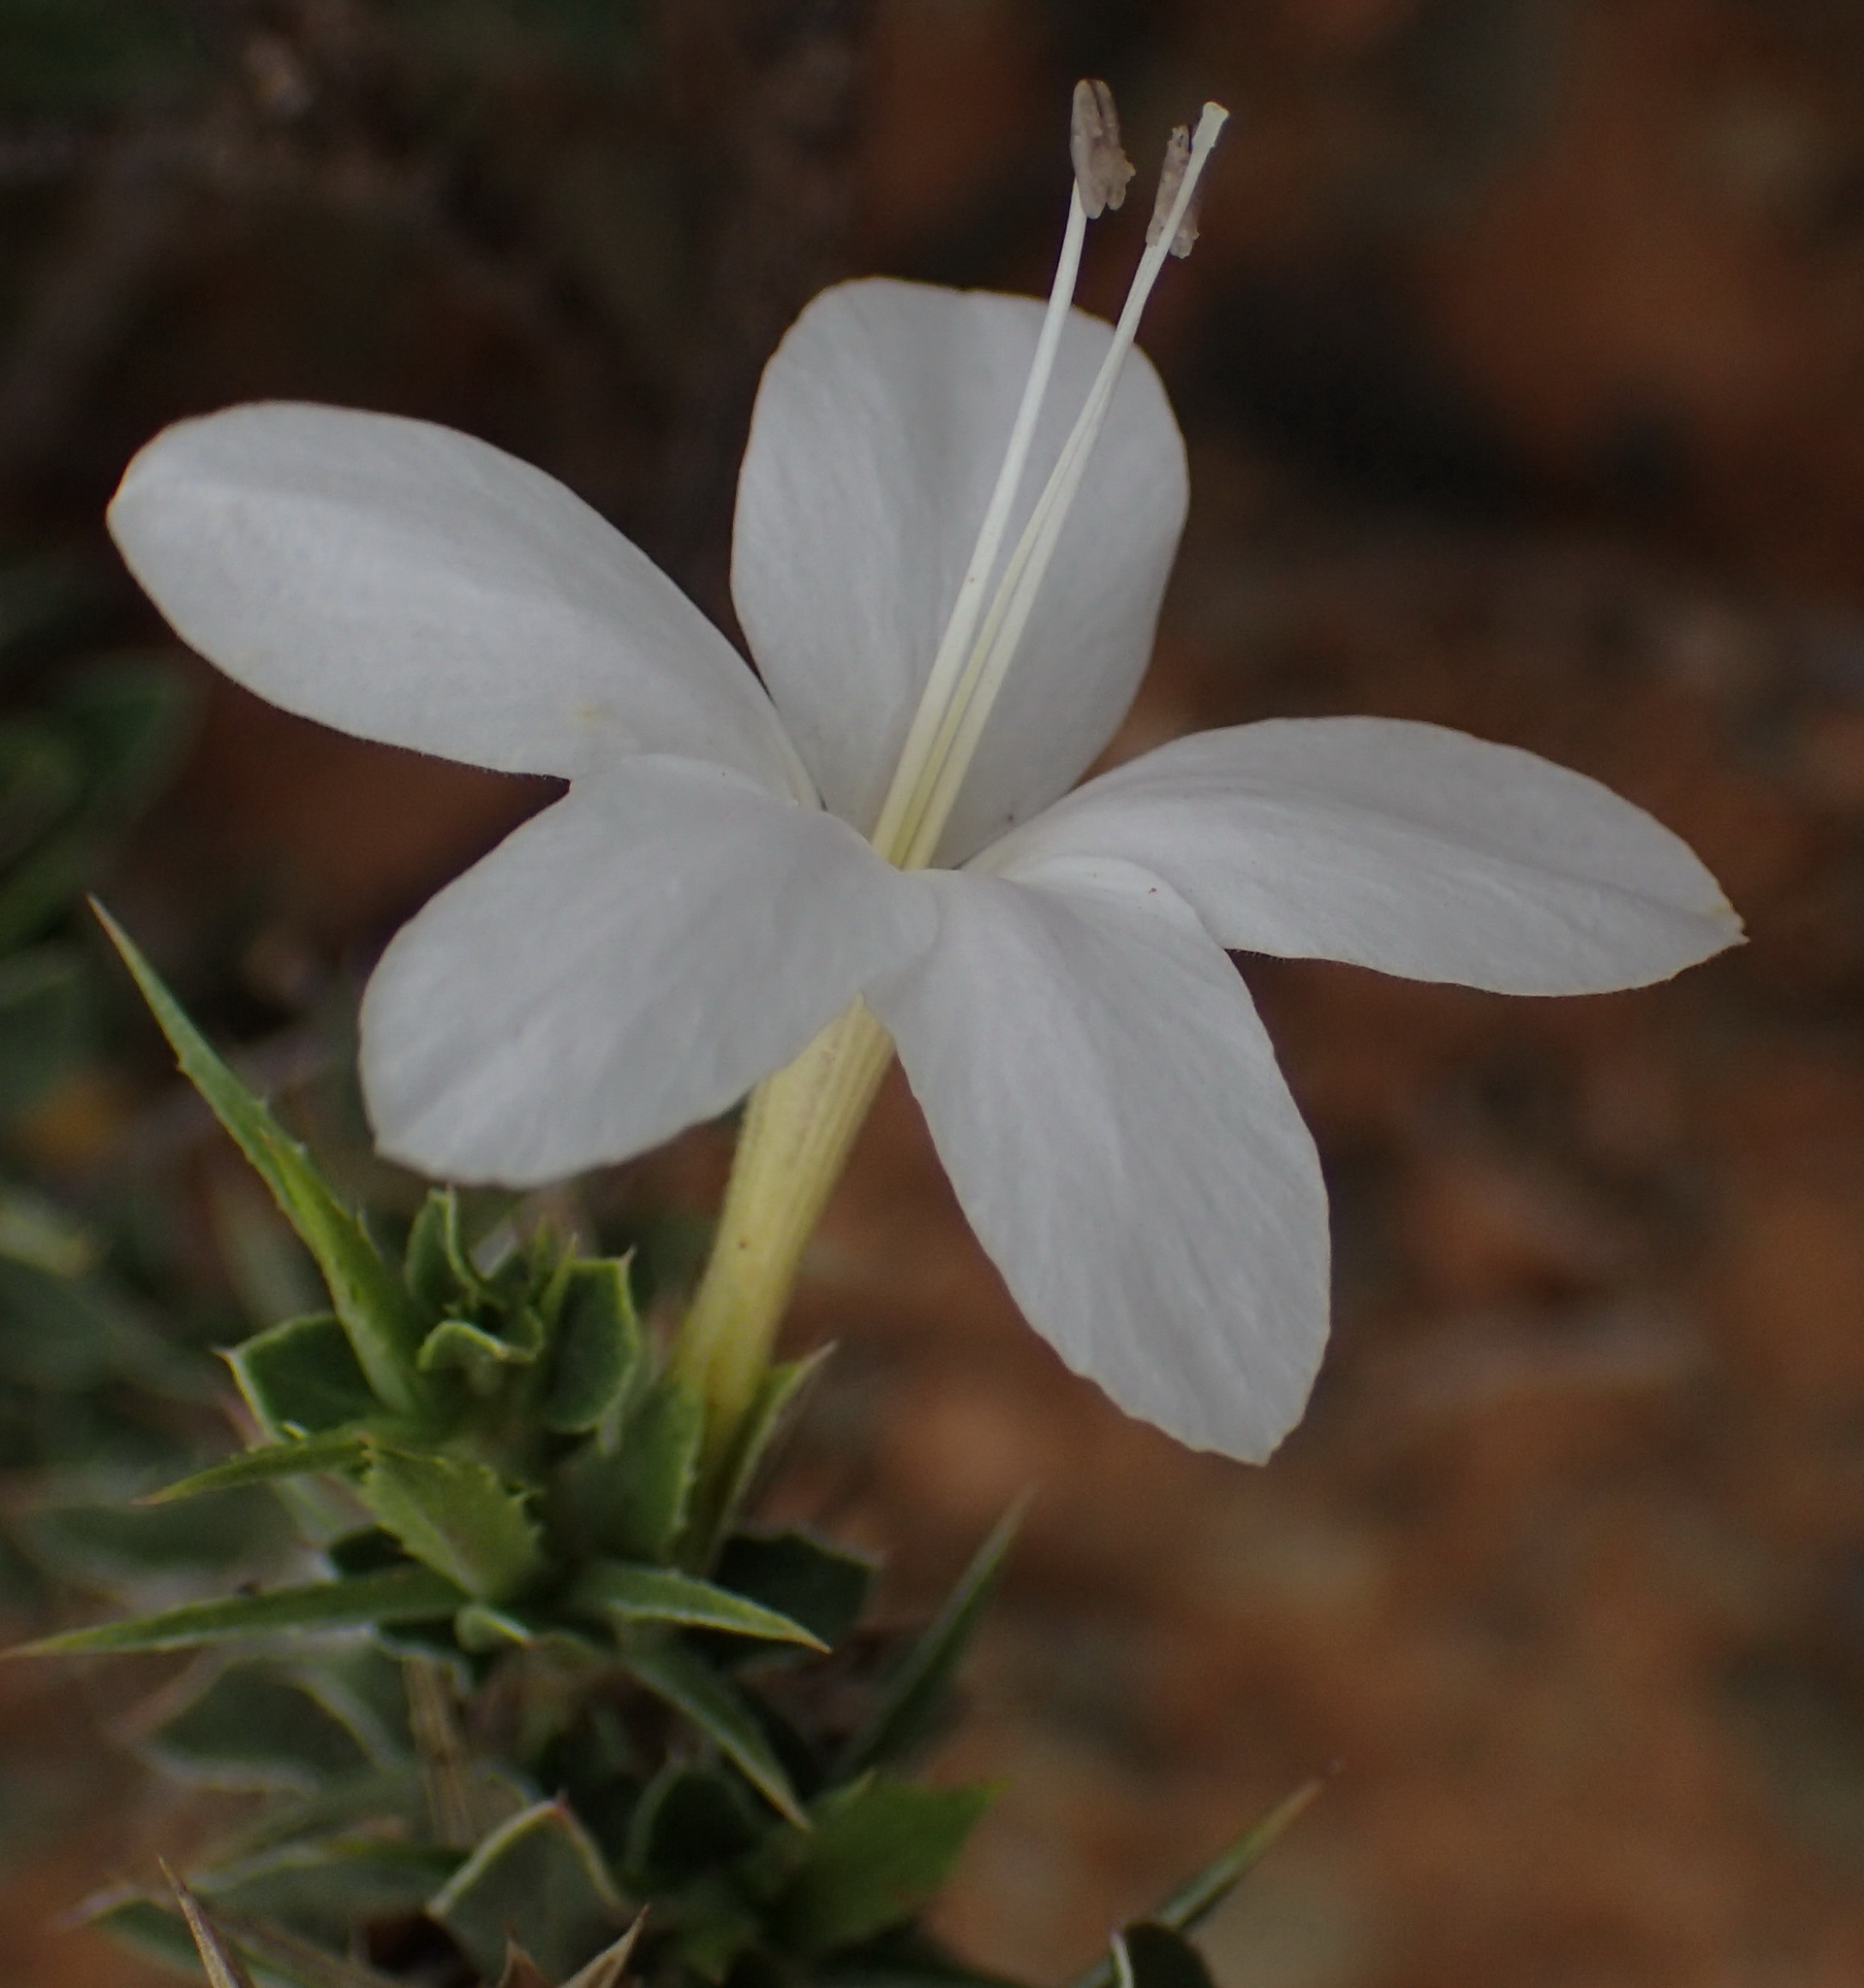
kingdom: Plantae
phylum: Tracheophyta
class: Magnoliopsida
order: Lamiales
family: Acanthaceae
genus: Barleria
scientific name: Barleria irritans
